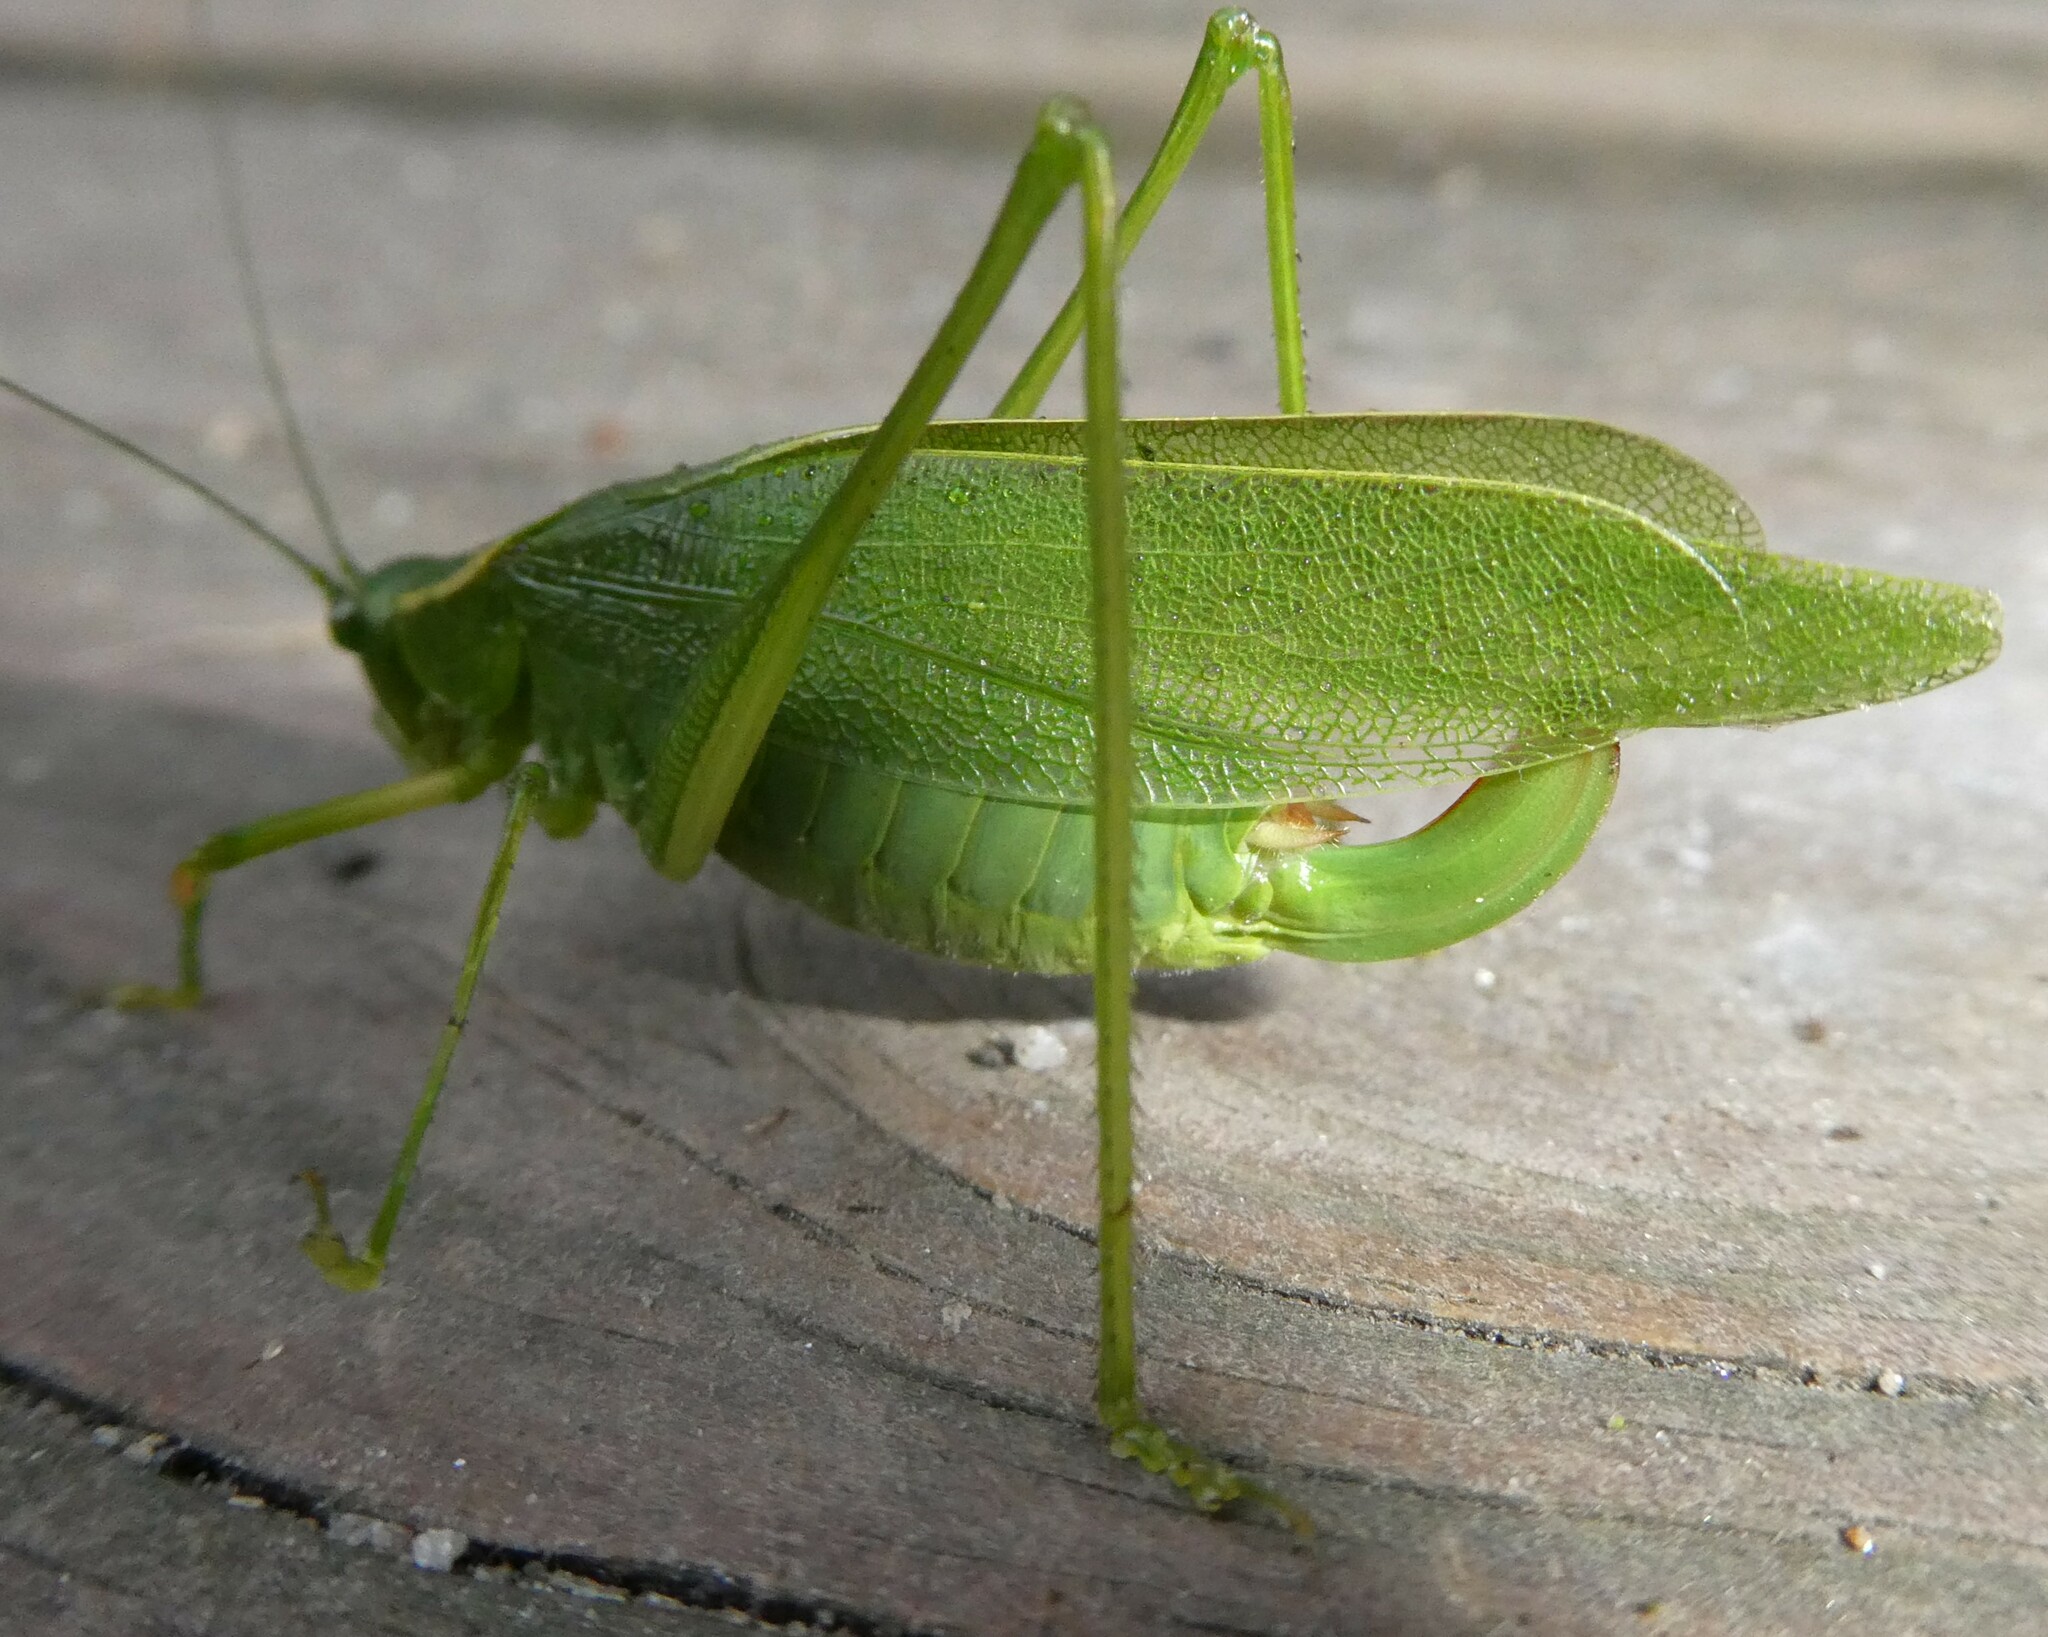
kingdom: Animalia
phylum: Arthropoda
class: Insecta
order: Orthoptera
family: Tettigoniidae
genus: Scudderia
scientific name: Scudderia septentrionalis
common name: Northern bush-katydid
